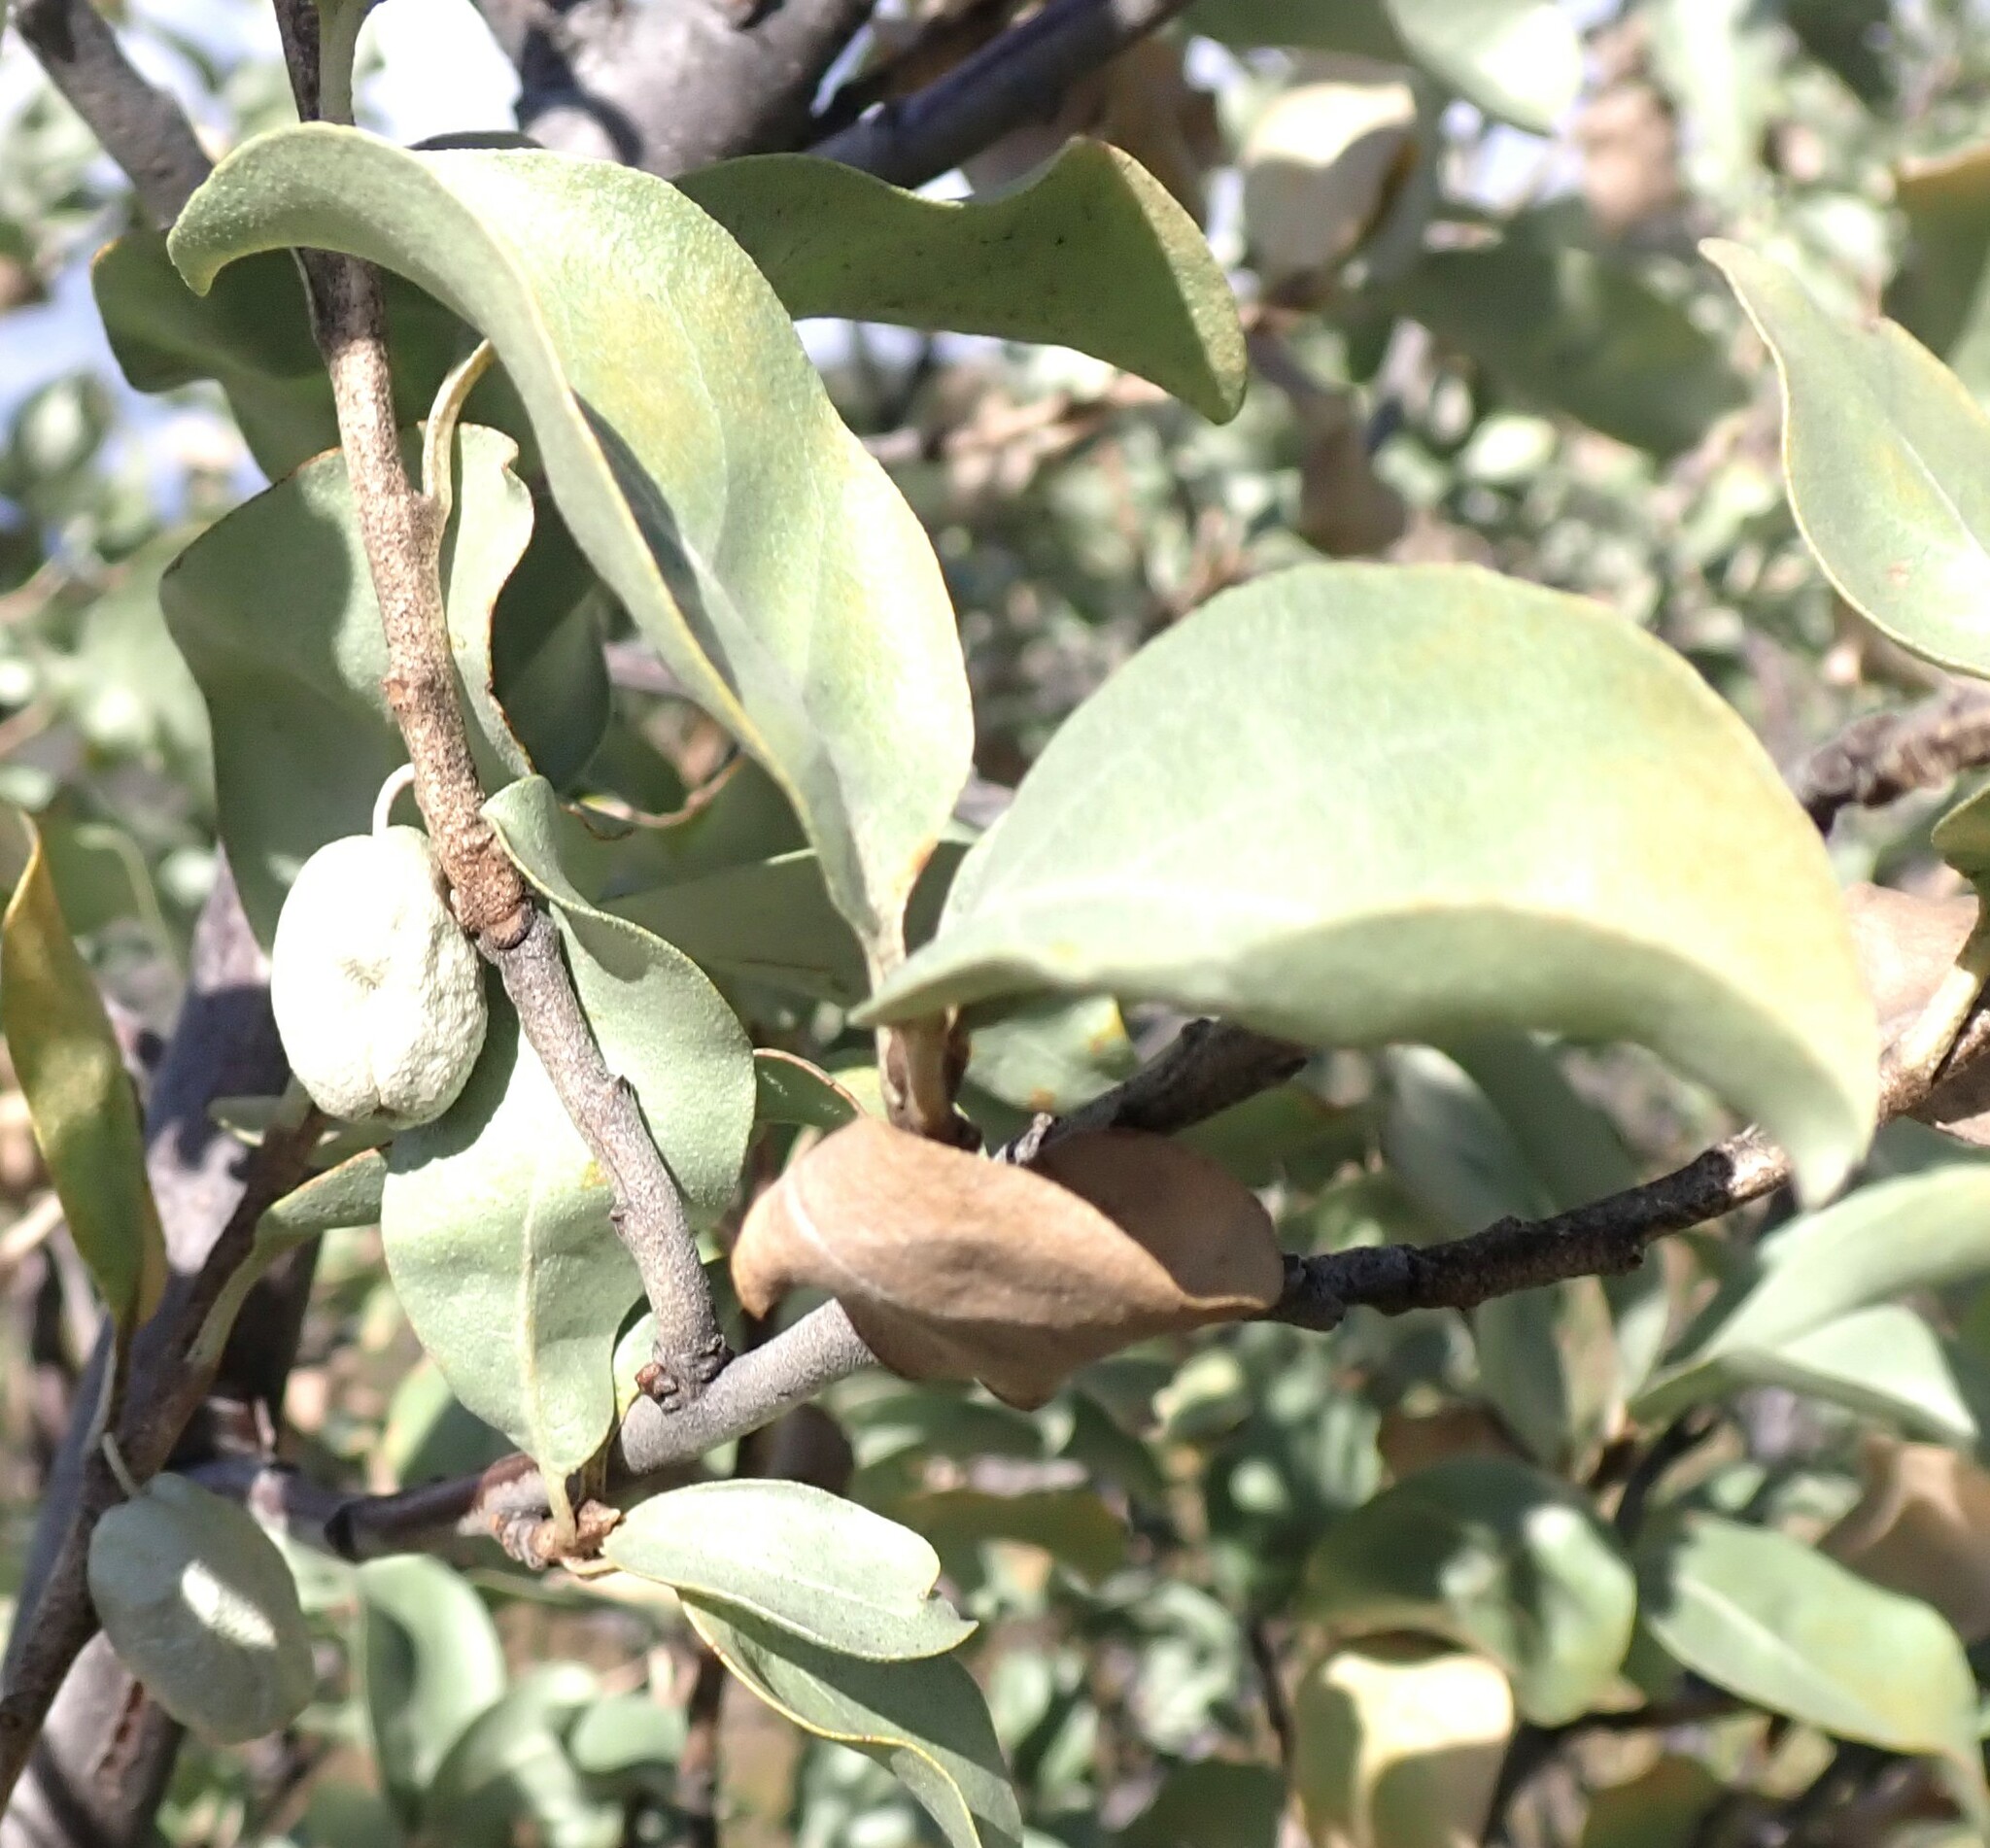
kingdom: Plantae
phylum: Tracheophyta
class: Magnoliopsida
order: Rosales
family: Elaeagnaceae
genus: Elaeagnus
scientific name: Elaeagnus commutata
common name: Silverberry
